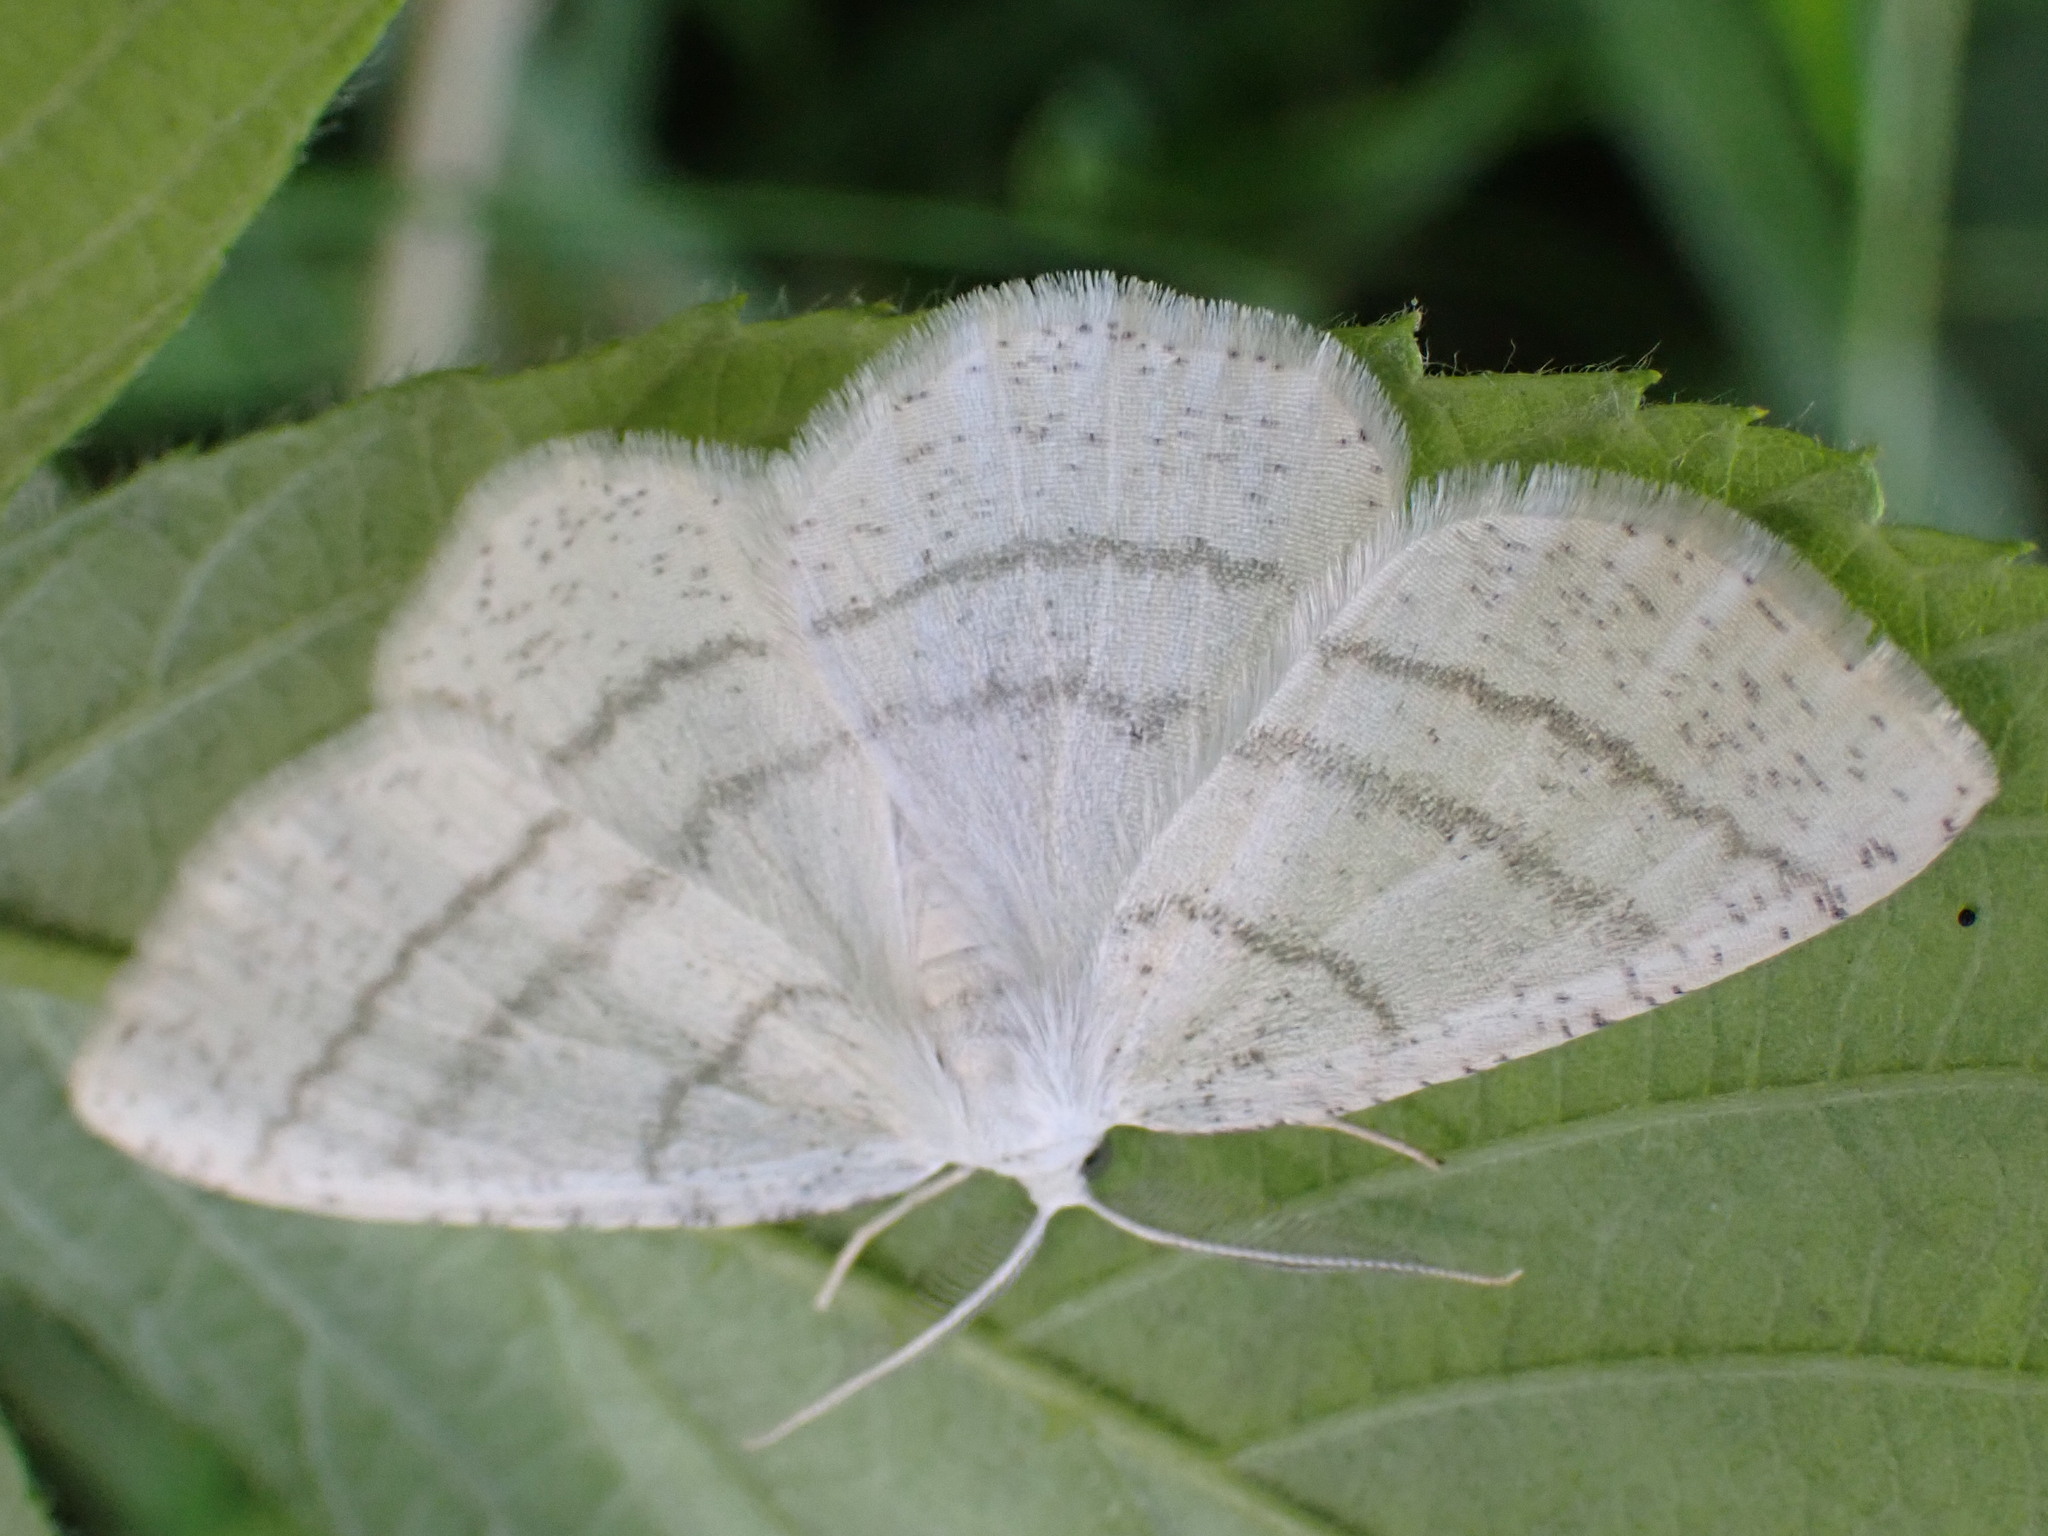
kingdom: Animalia
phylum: Arthropoda
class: Insecta
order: Lepidoptera
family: Geometridae
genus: Cabera
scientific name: Cabera pusaria
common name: Common white wave
